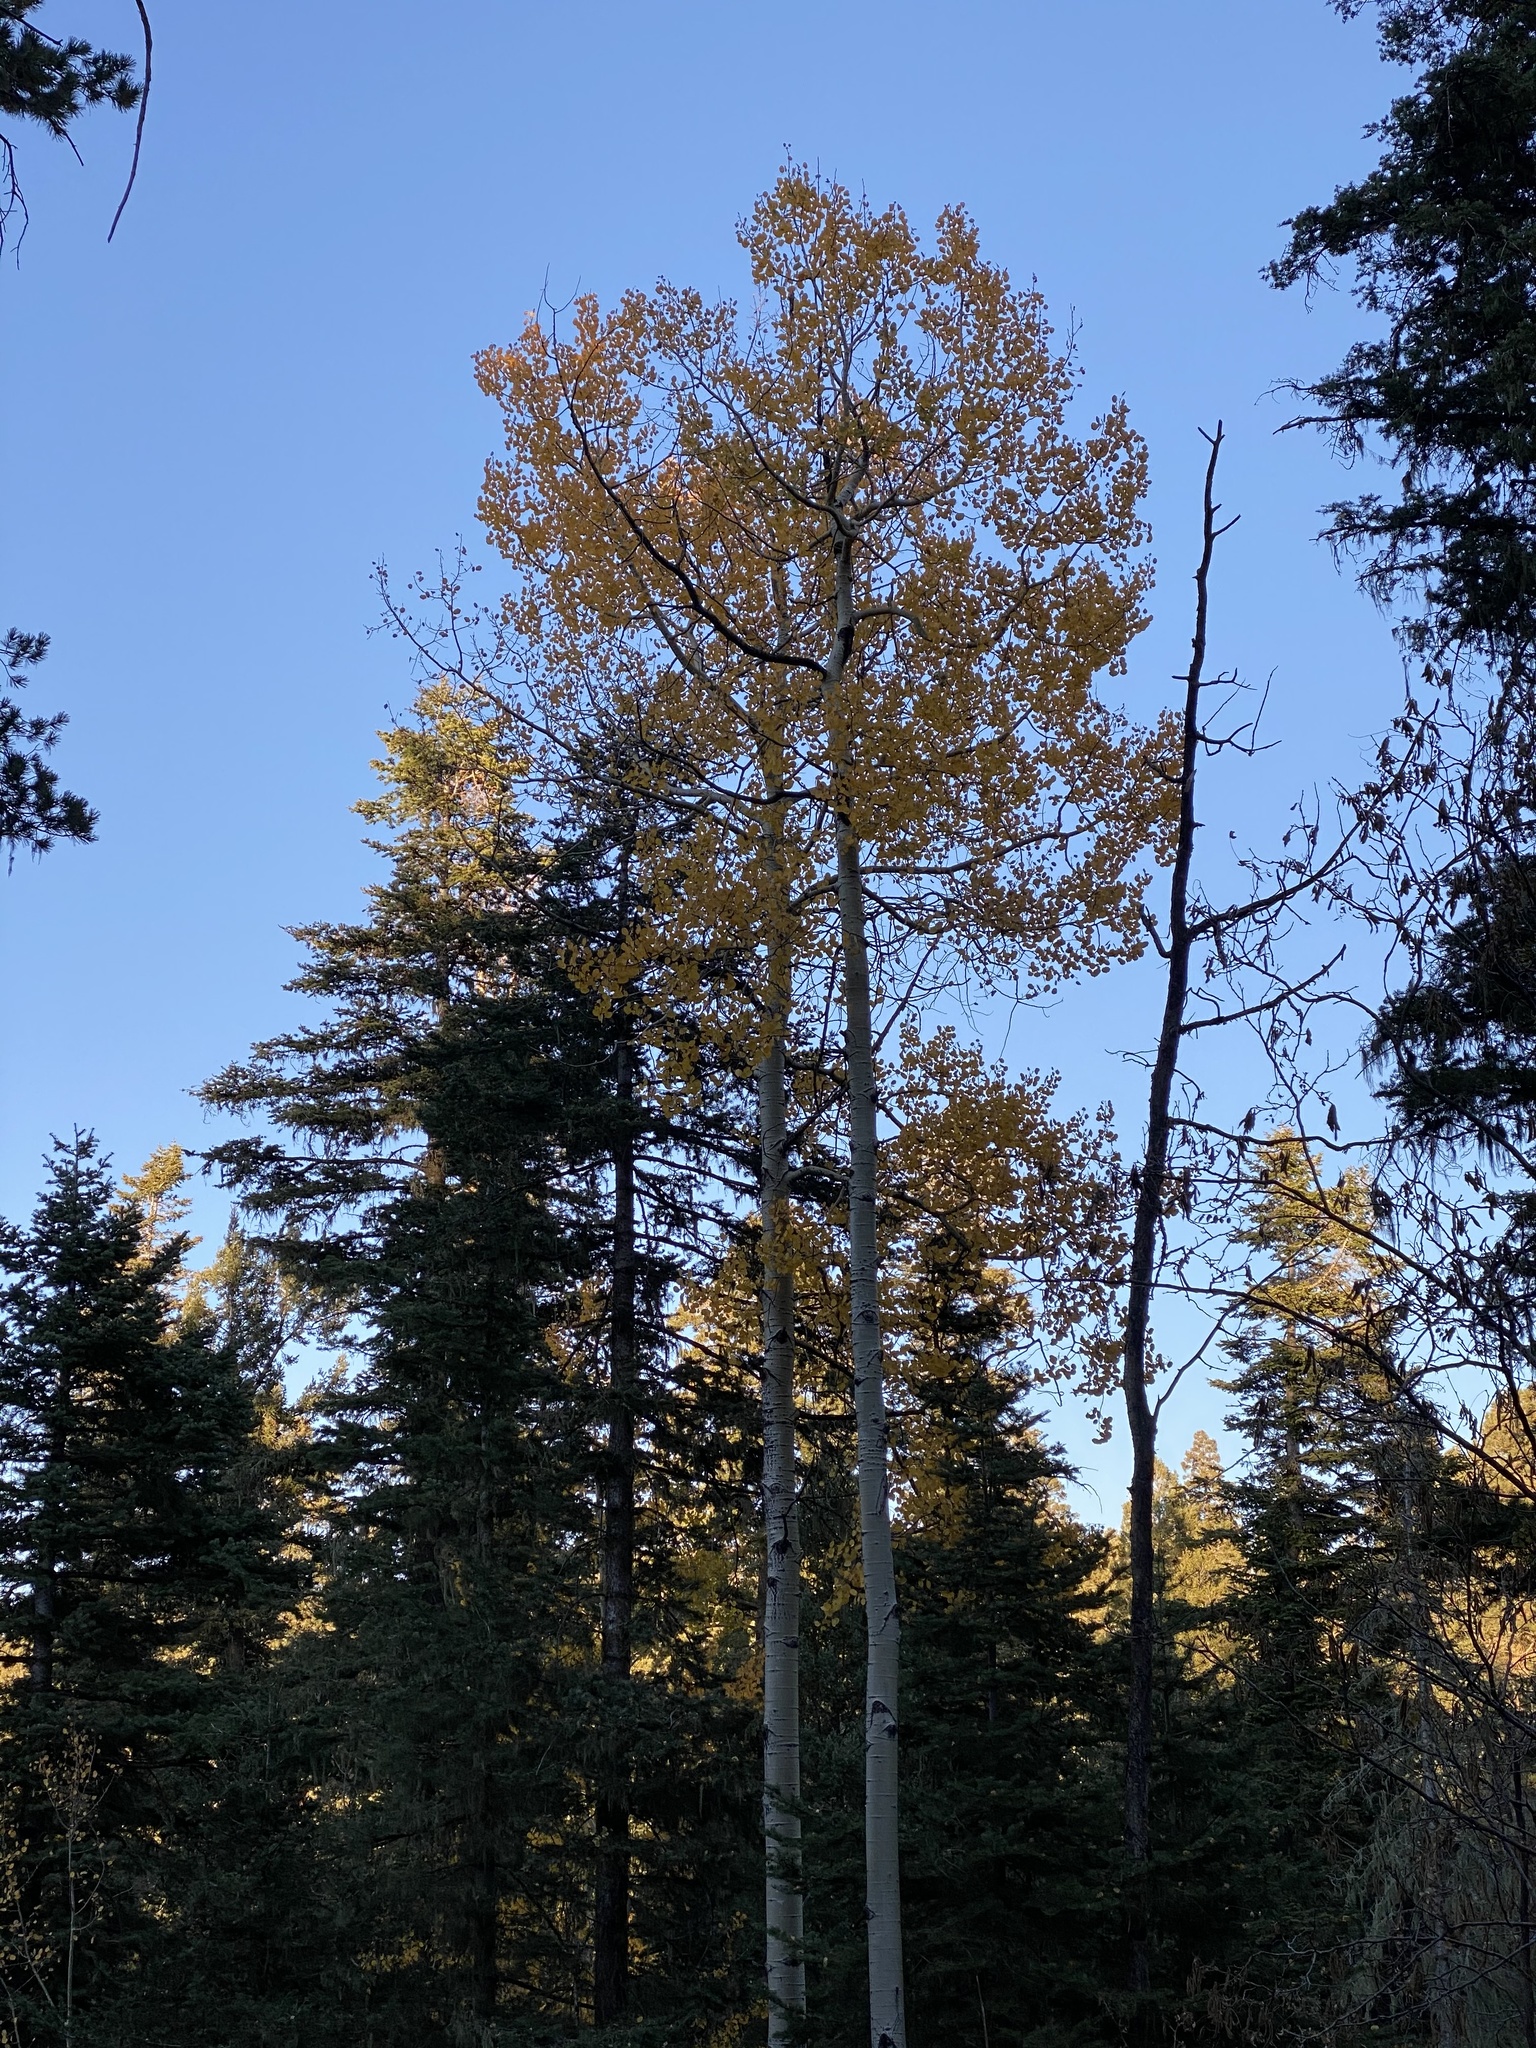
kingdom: Plantae
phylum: Tracheophyta
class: Magnoliopsida
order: Malpighiales
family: Salicaceae
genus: Populus
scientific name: Populus tremuloides
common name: Quaking aspen
